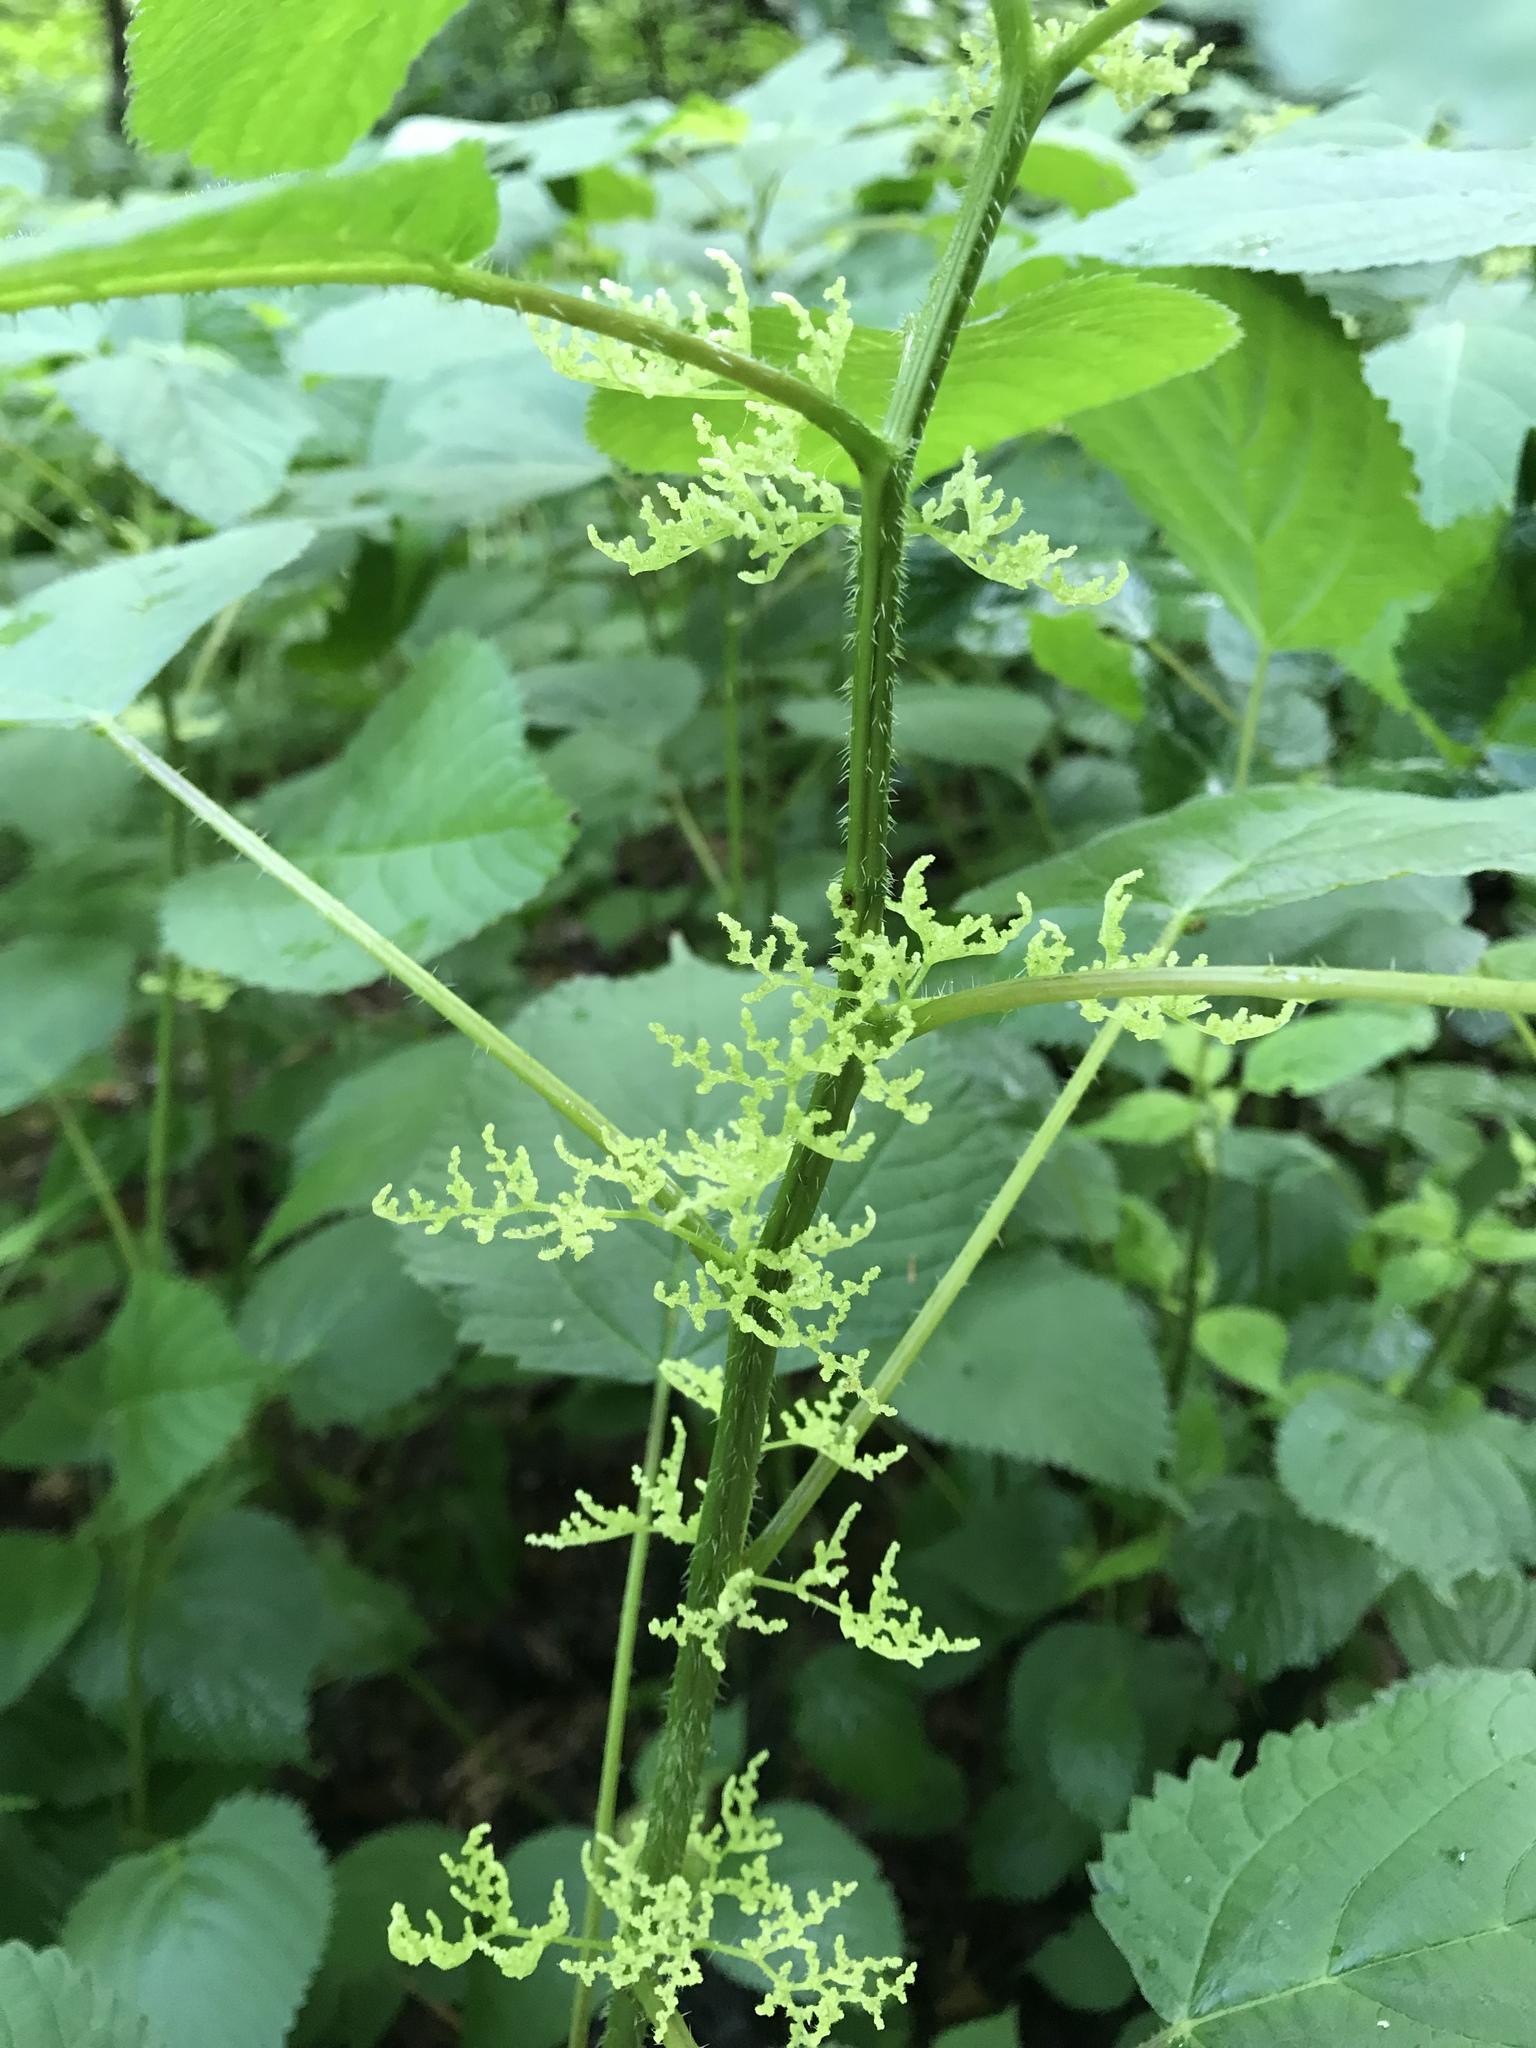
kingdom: Plantae
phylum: Tracheophyta
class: Magnoliopsida
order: Rosales
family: Urticaceae
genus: Laportea
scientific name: Laportea canadensis
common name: Canada nettle
